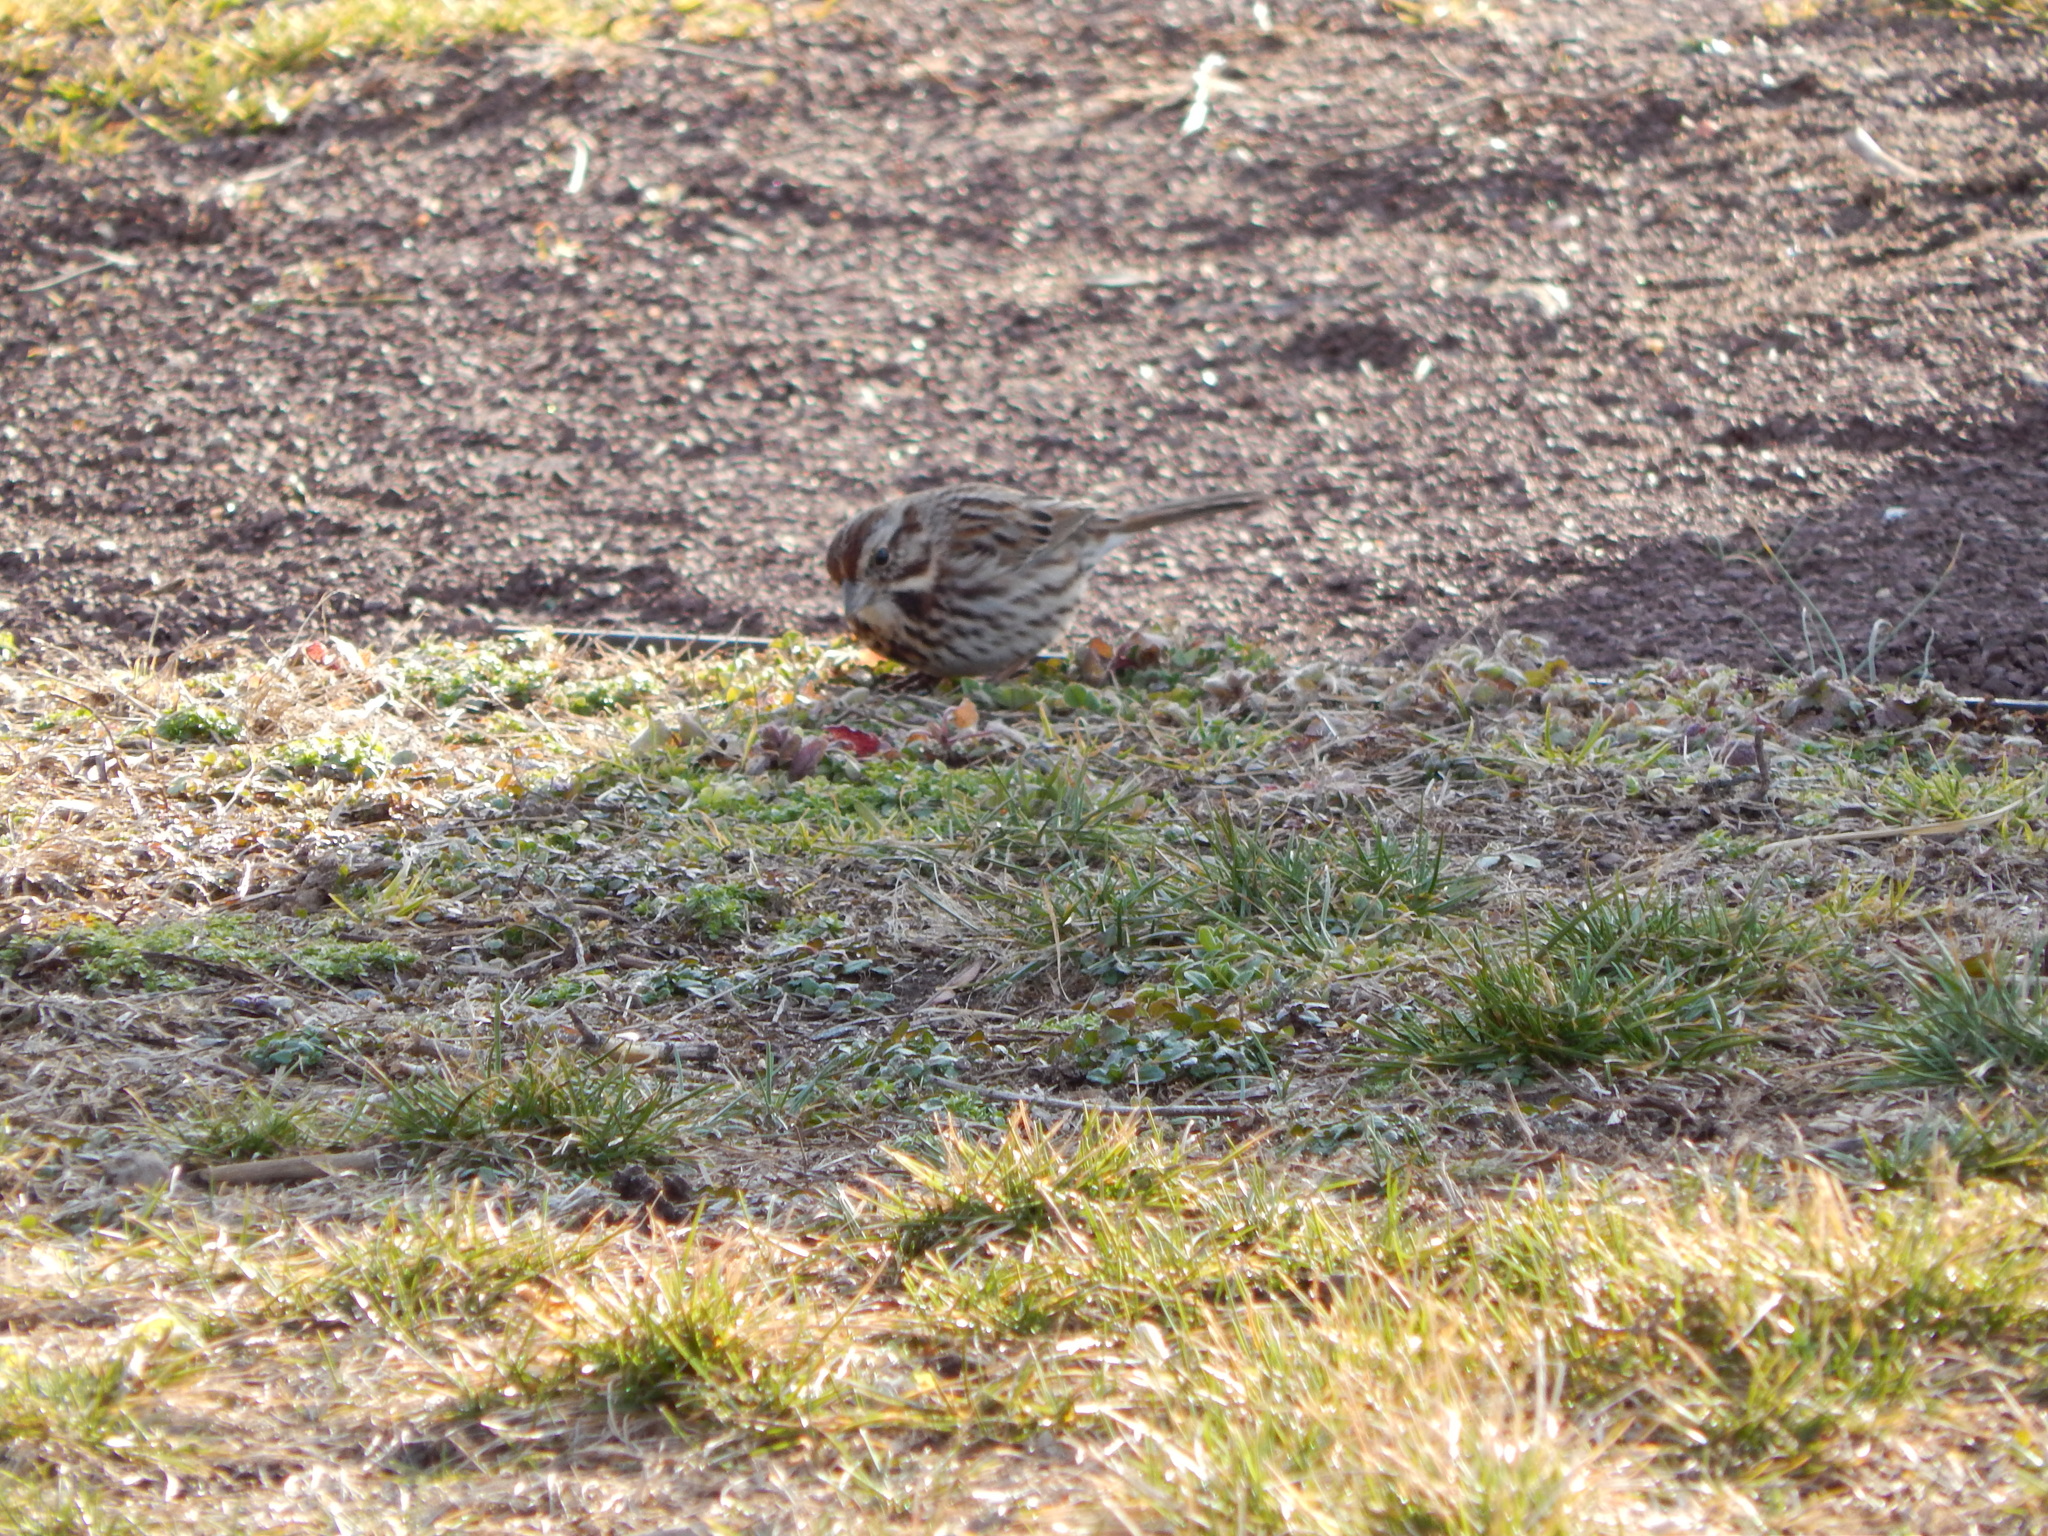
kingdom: Animalia
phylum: Chordata
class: Aves
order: Passeriformes
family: Passerellidae
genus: Melospiza
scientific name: Melospiza melodia
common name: Song sparrow
